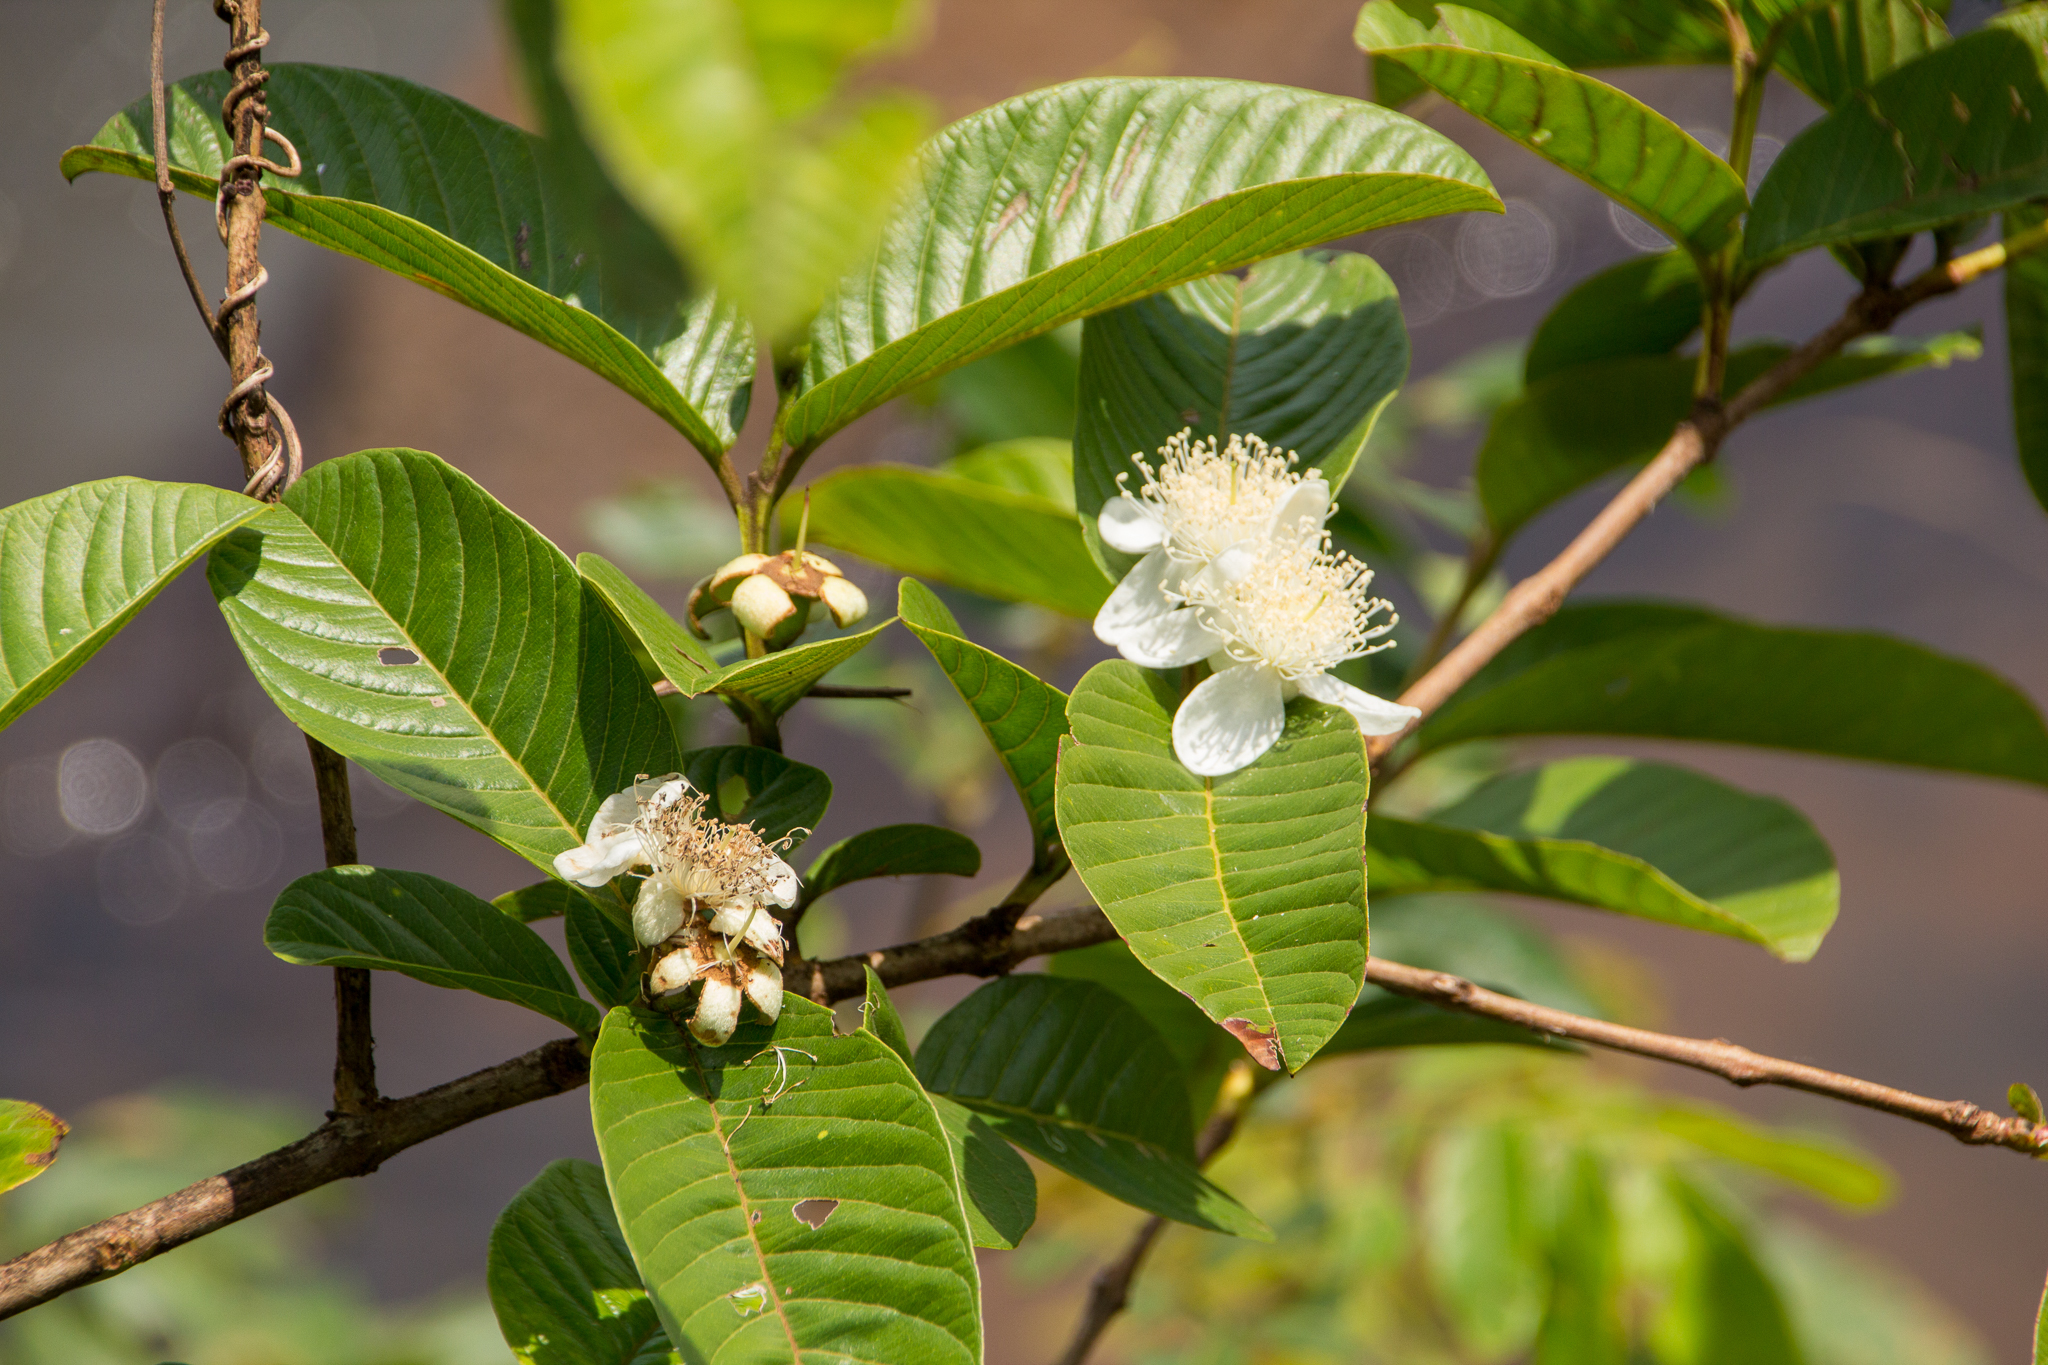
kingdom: Plantae
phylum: Tracheophyta
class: Magnoliopsida
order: Myrtales
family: Myrtaceae
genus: Psidium
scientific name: Psidium guajava
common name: Guava
